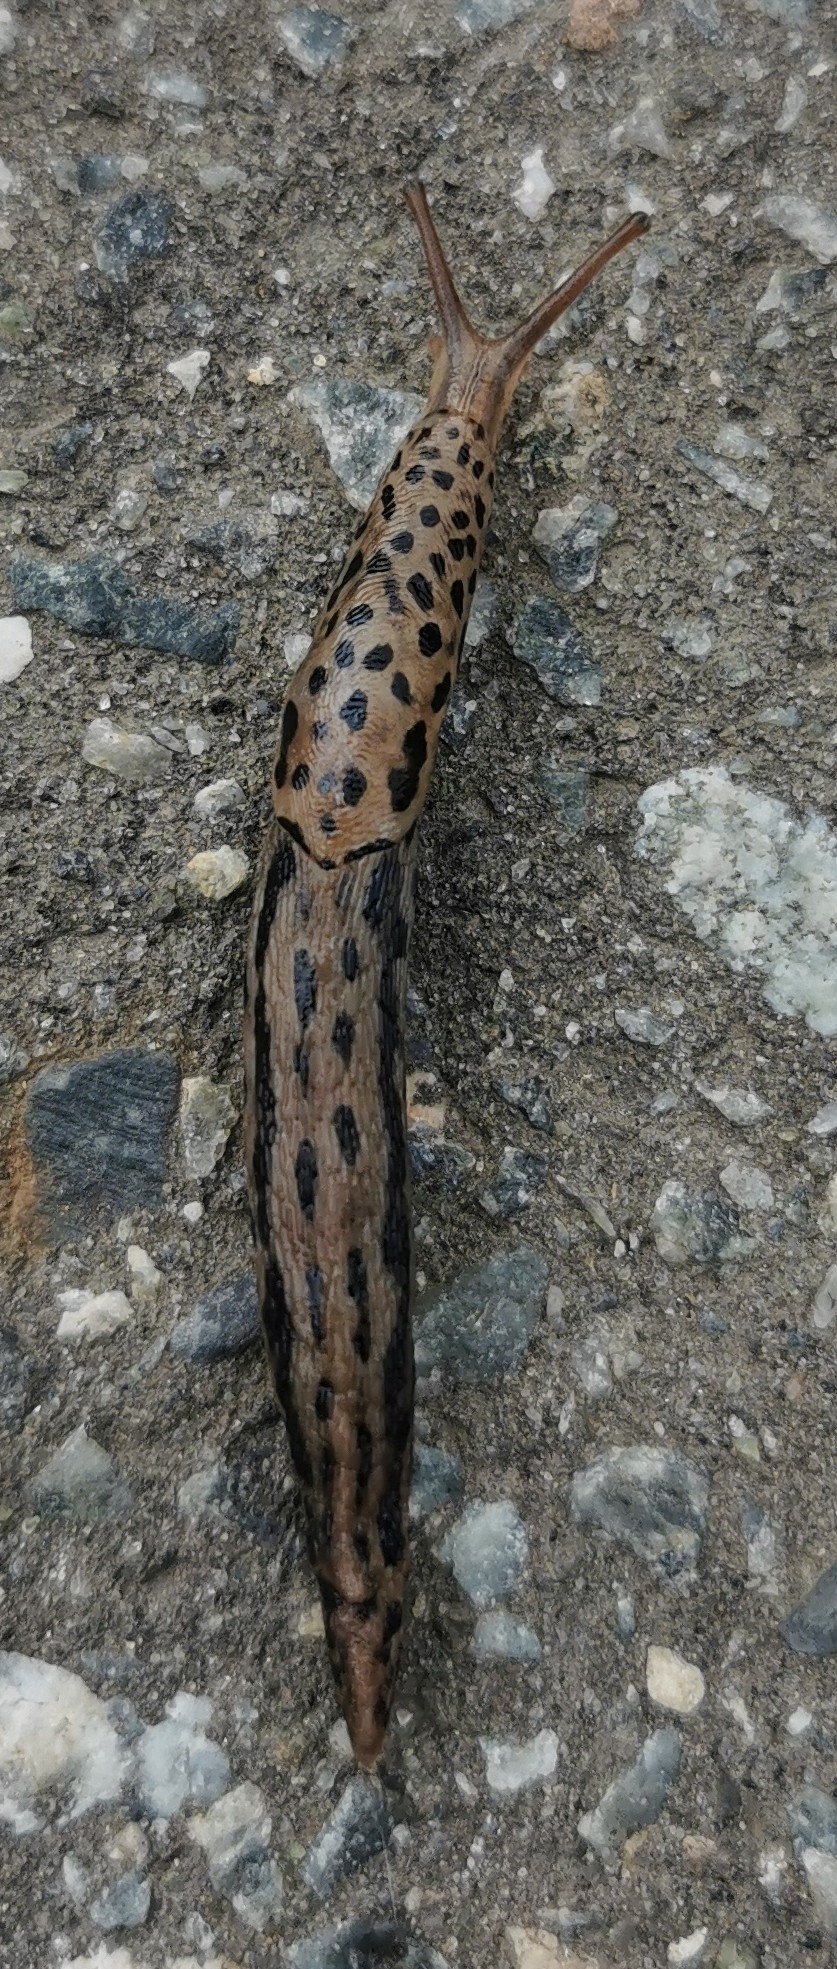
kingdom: Animalia
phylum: Mollusca
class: Gastropoda
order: Stylommatophora
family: Limacidae
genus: Limax
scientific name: Limax maximus
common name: Great grey slug
